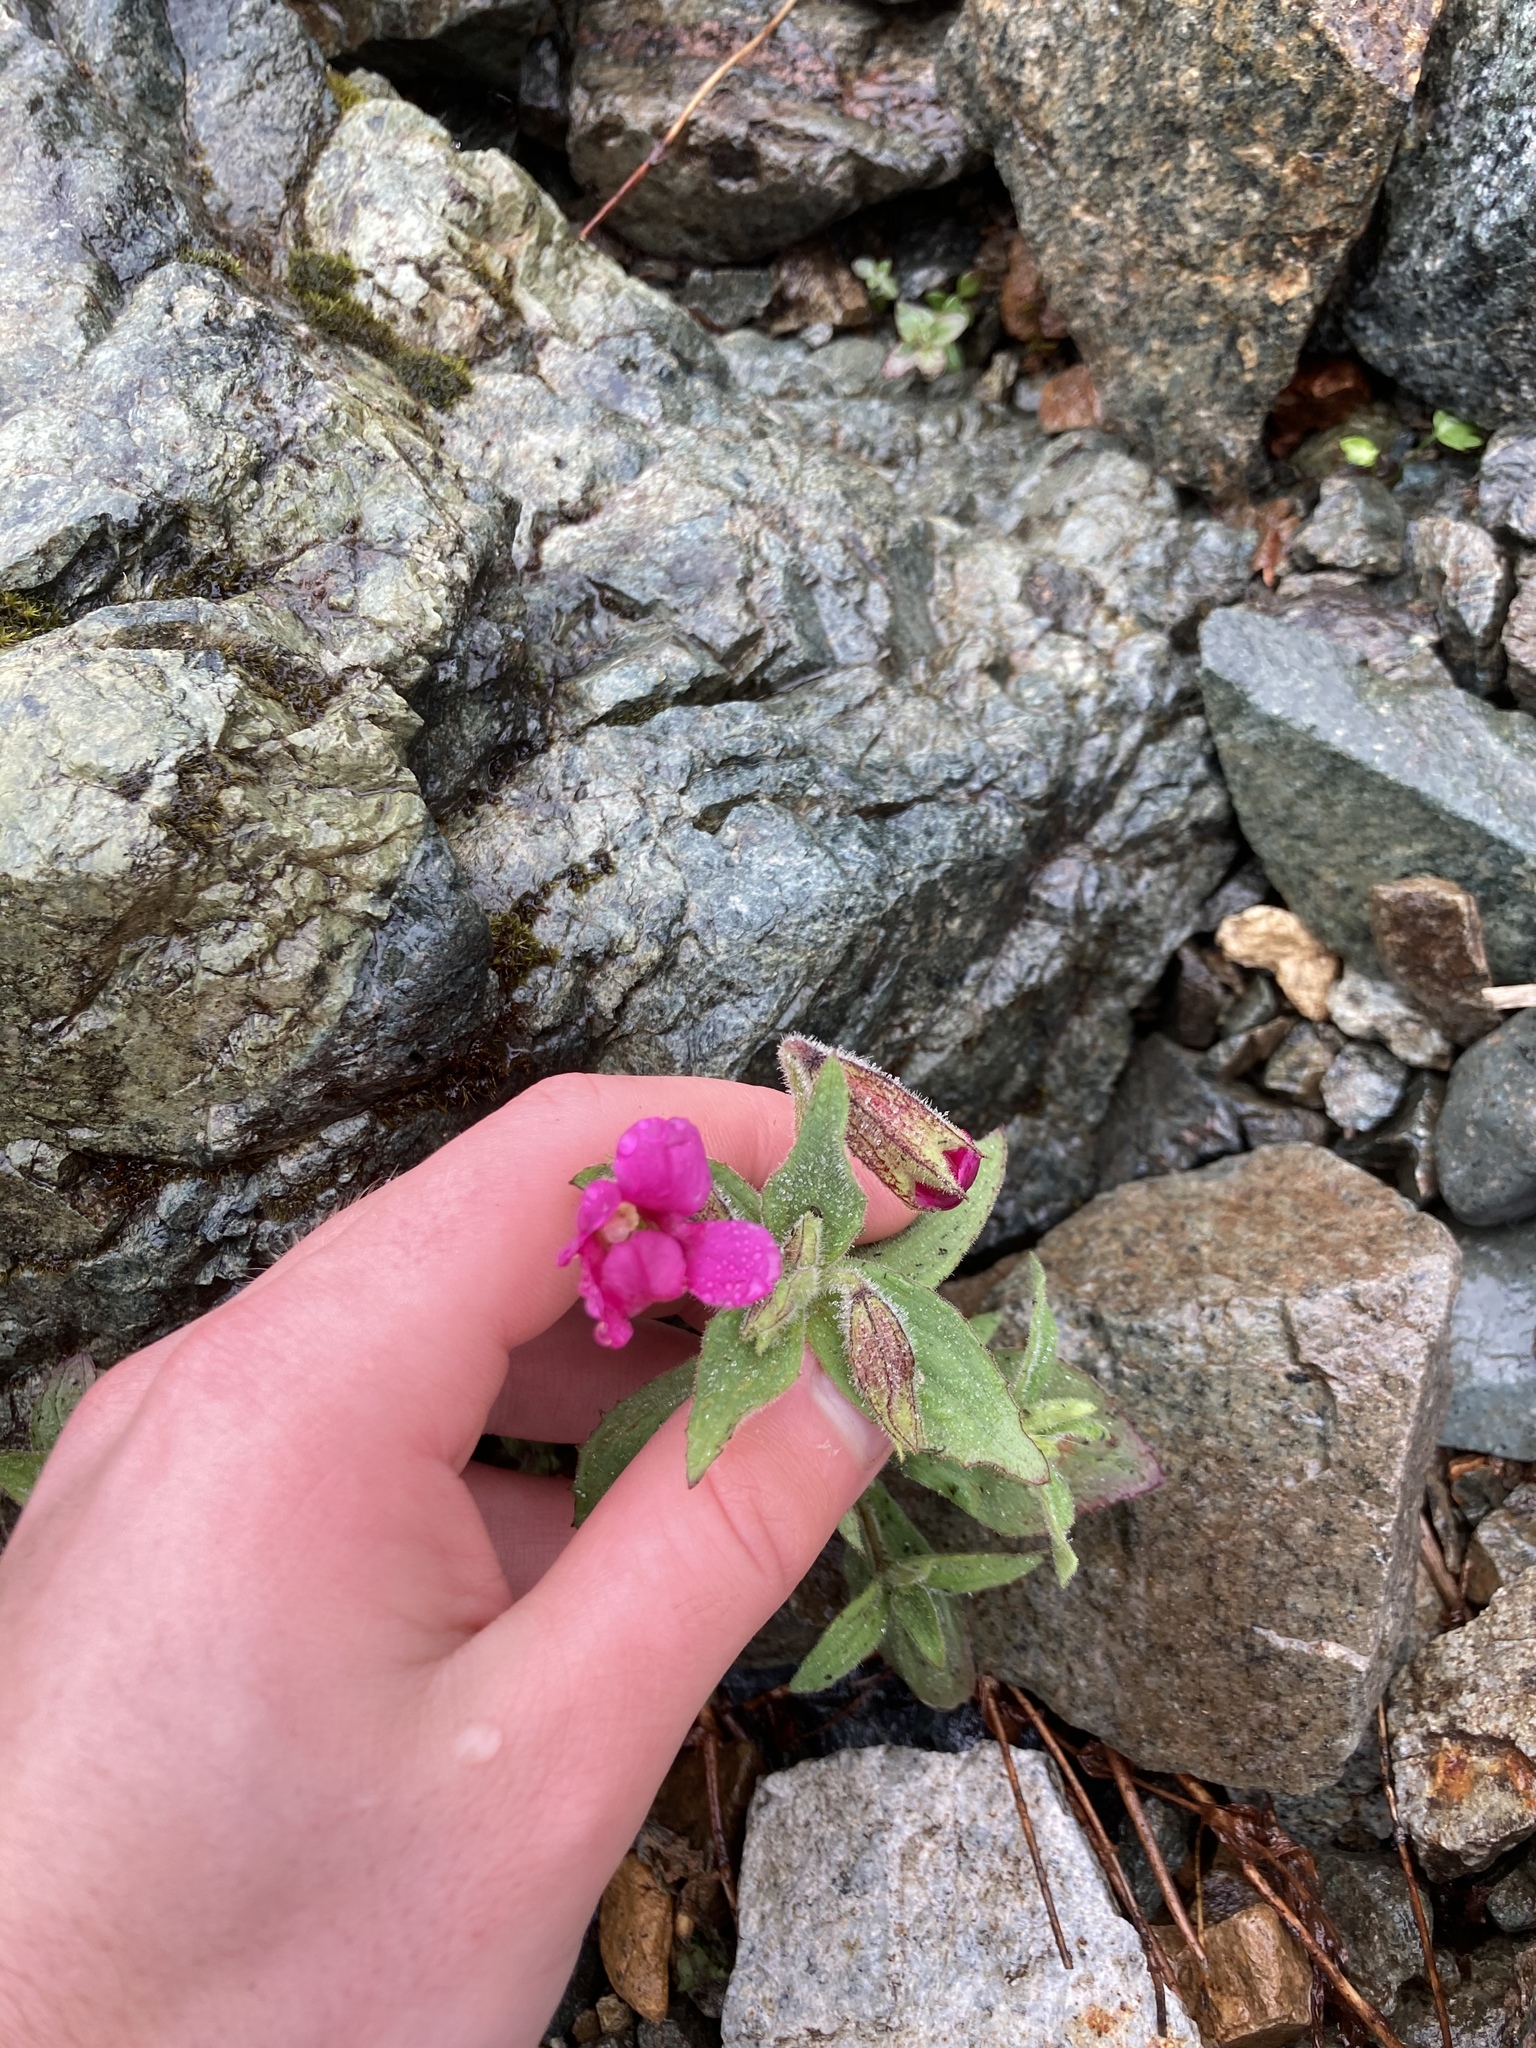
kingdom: Plantae
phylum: Tracheophyta
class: Magnoliopsida
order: Lamiales
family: Phrymaceae
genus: Erythranthe
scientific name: Erythranthe lewisii
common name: Lewis's monkey-flower
